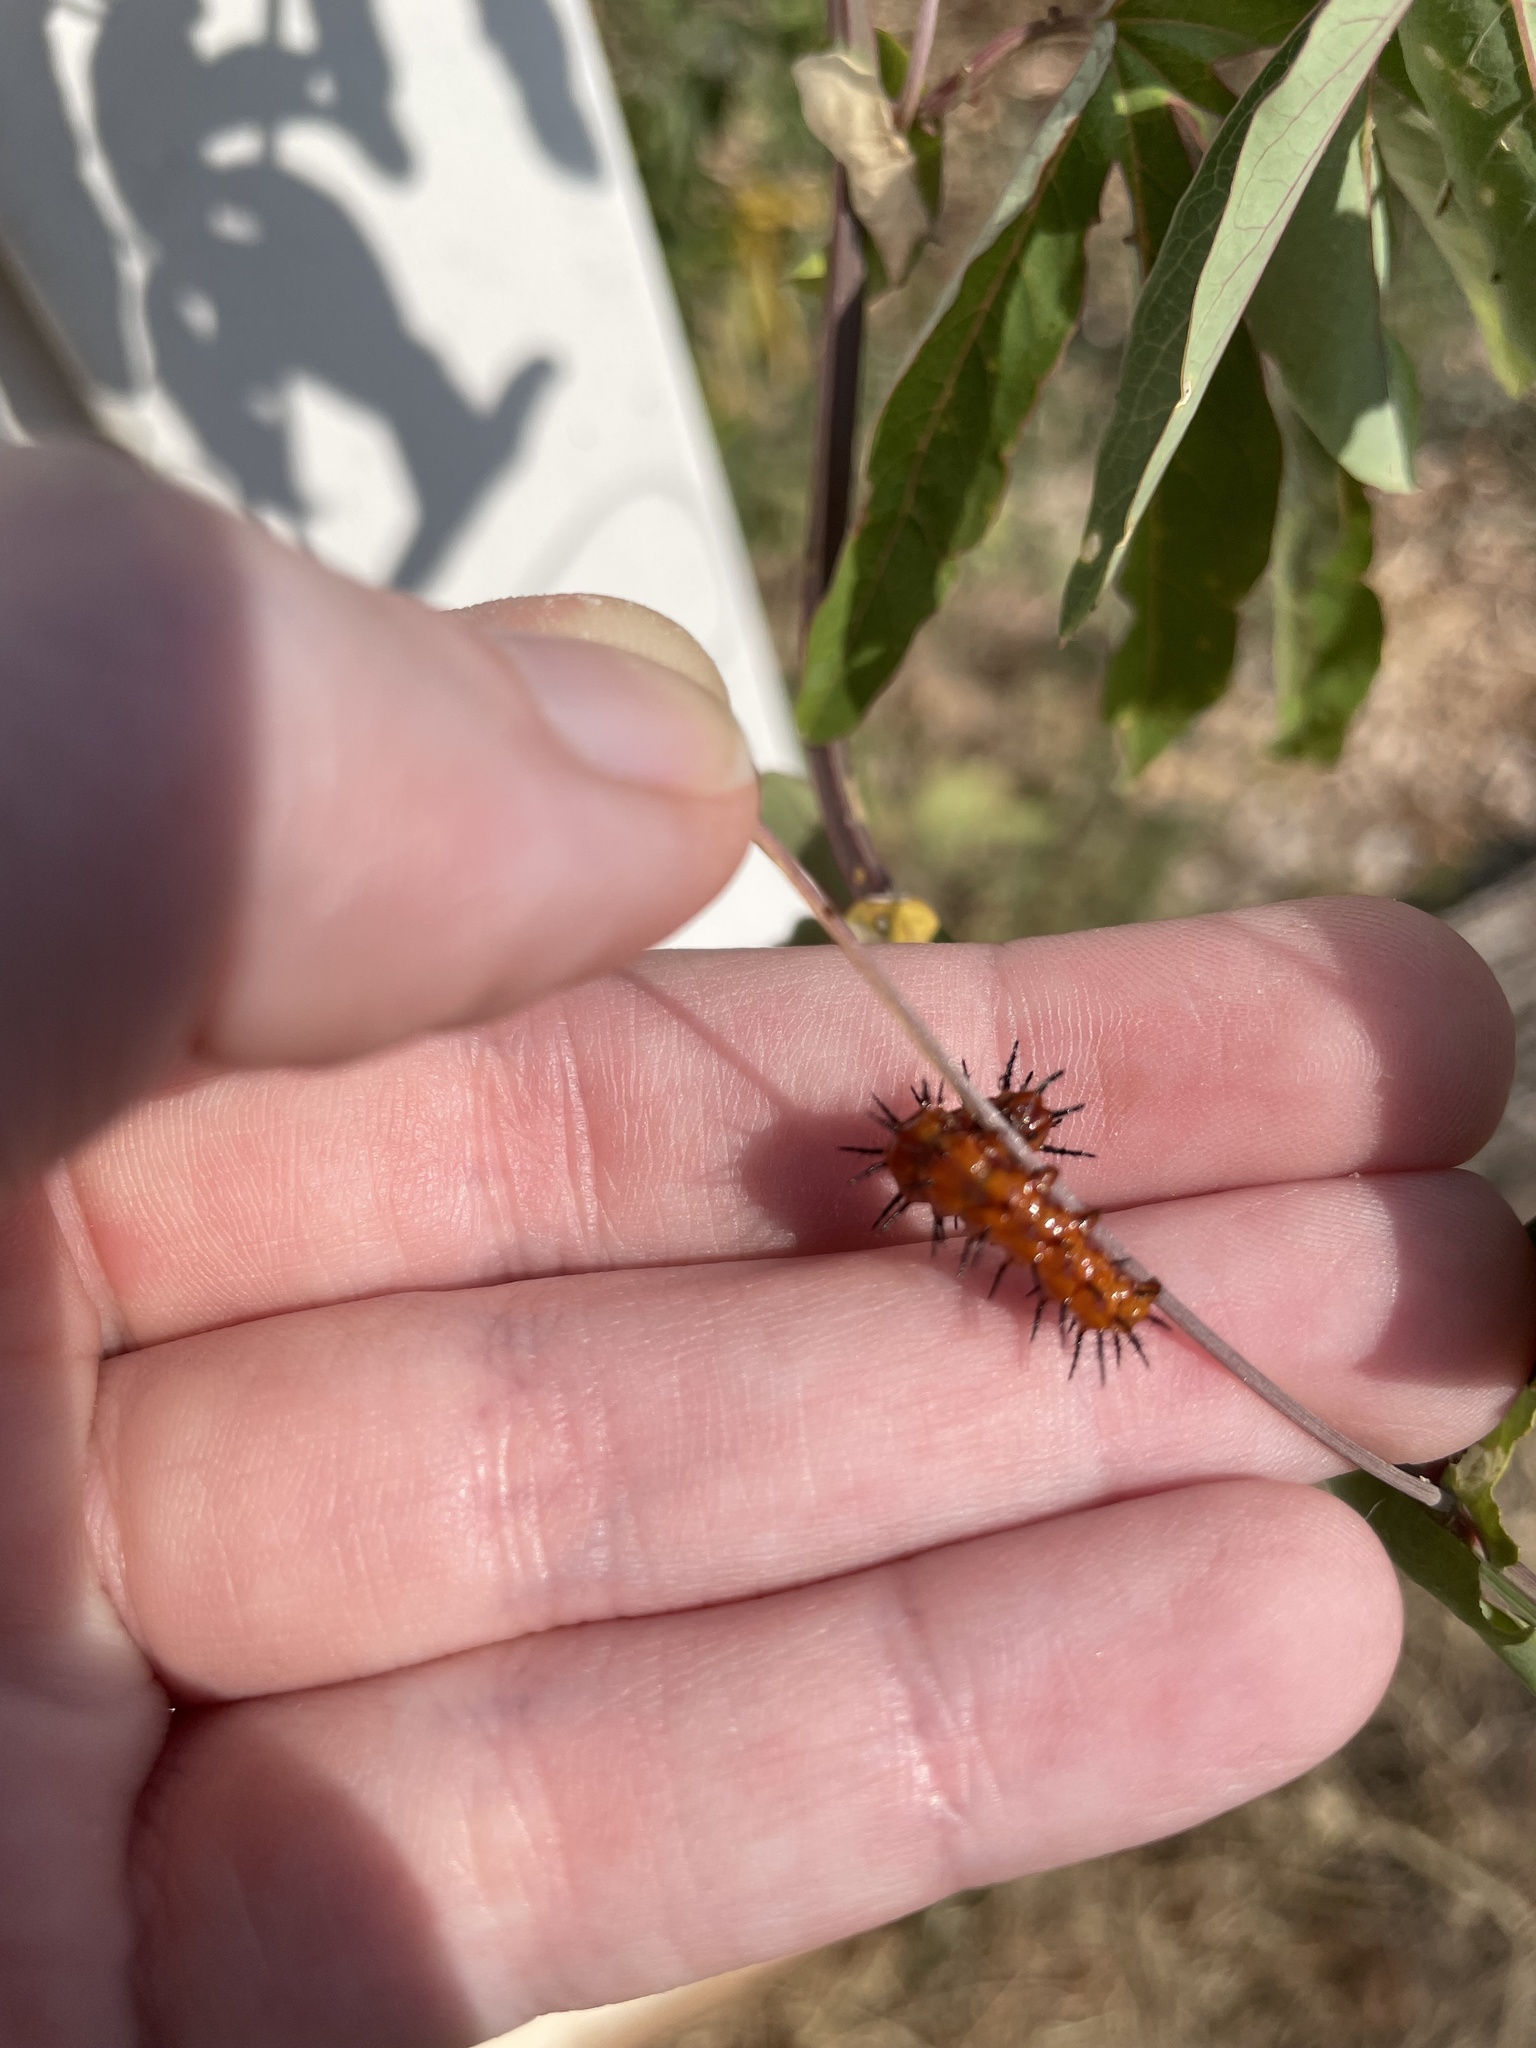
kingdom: Animalia
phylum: Arthropoda
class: Insecta
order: Lepidoptera
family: Nymphalidae
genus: Dione
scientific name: Dione vanillae
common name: Gulf fritillary
